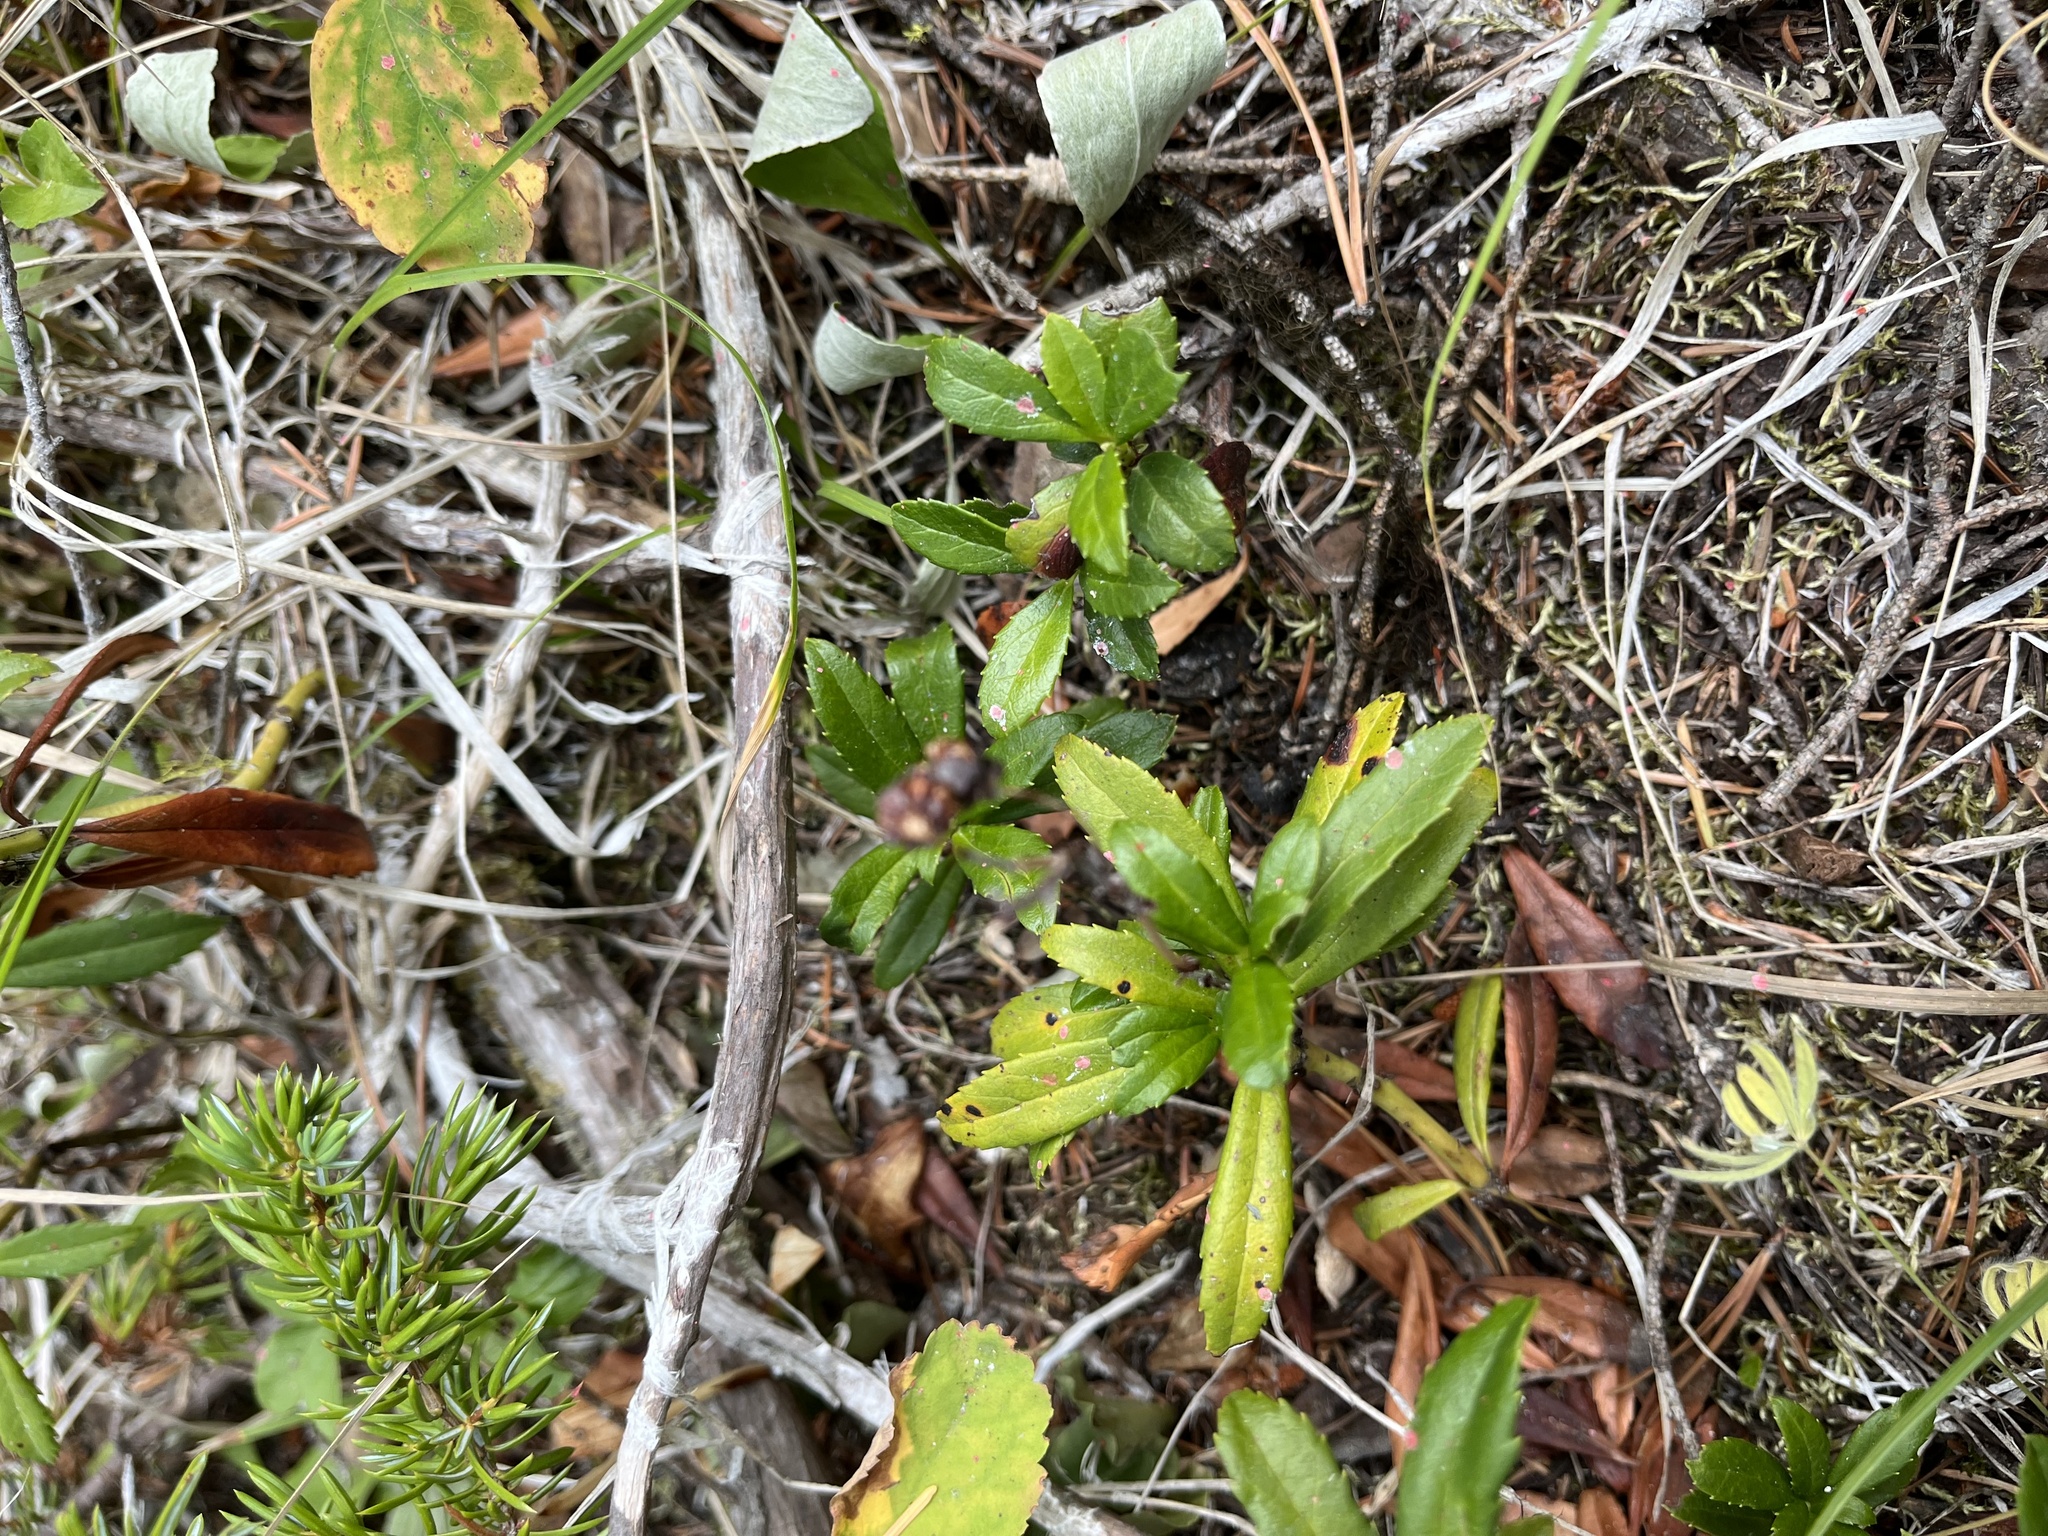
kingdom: Plantae
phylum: Tracheophyta
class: Magnoliopsida
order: Ericales
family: Ericaceae
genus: Chimaphila
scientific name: Chimaphila umbellata
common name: Pipsissewa
